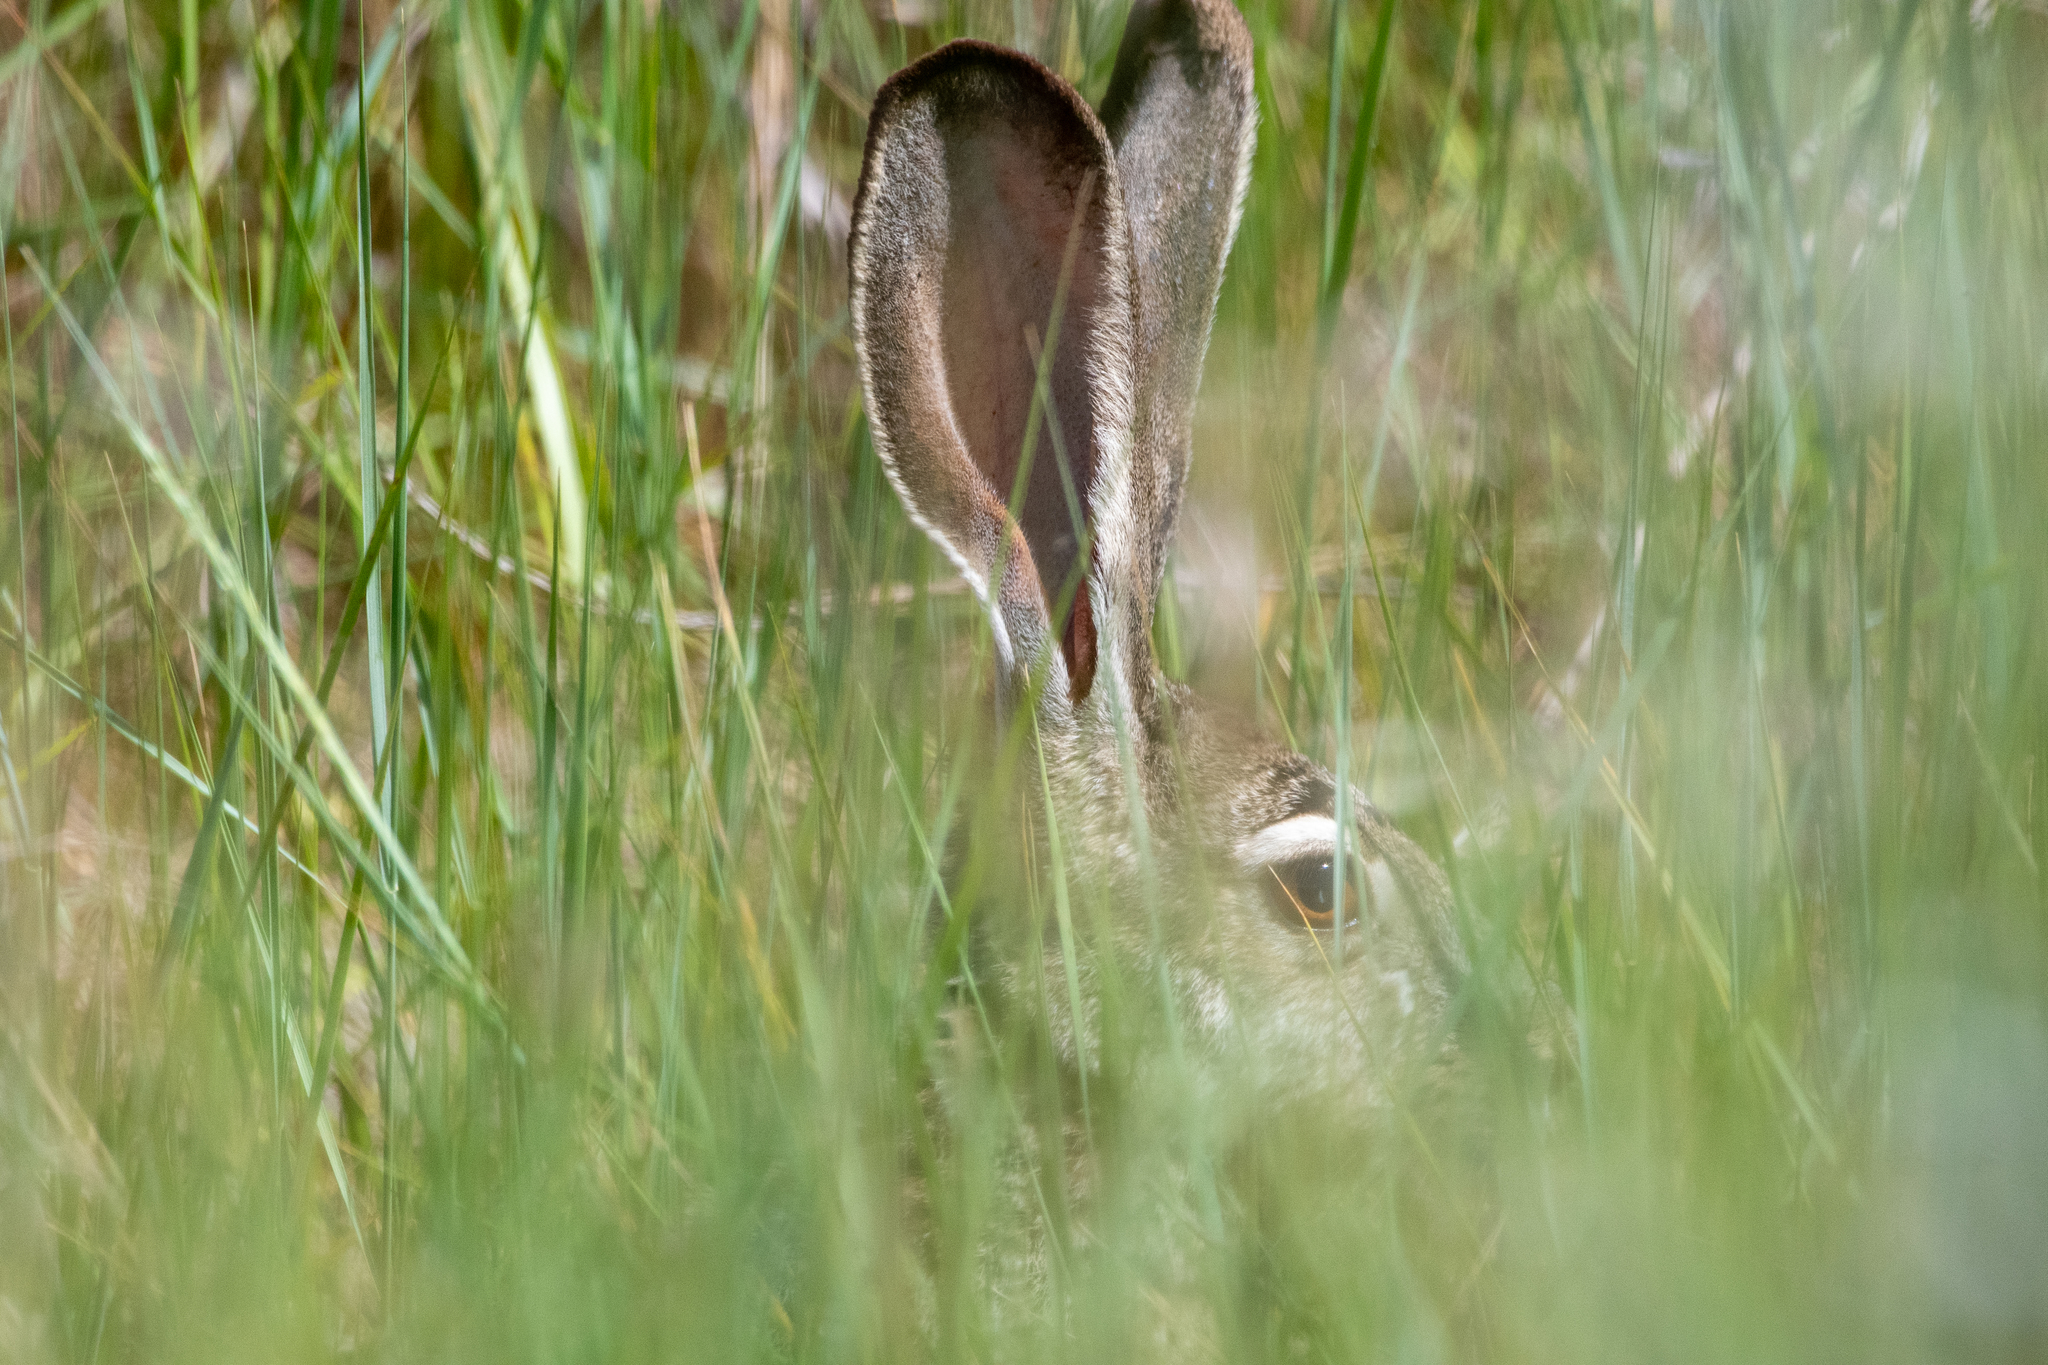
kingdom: Animalia
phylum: Chordata
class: Mammalia
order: Lagomorpha
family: Leporidae
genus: Lepus
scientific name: Lepus californicus
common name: Black-tailed jackrabbit
